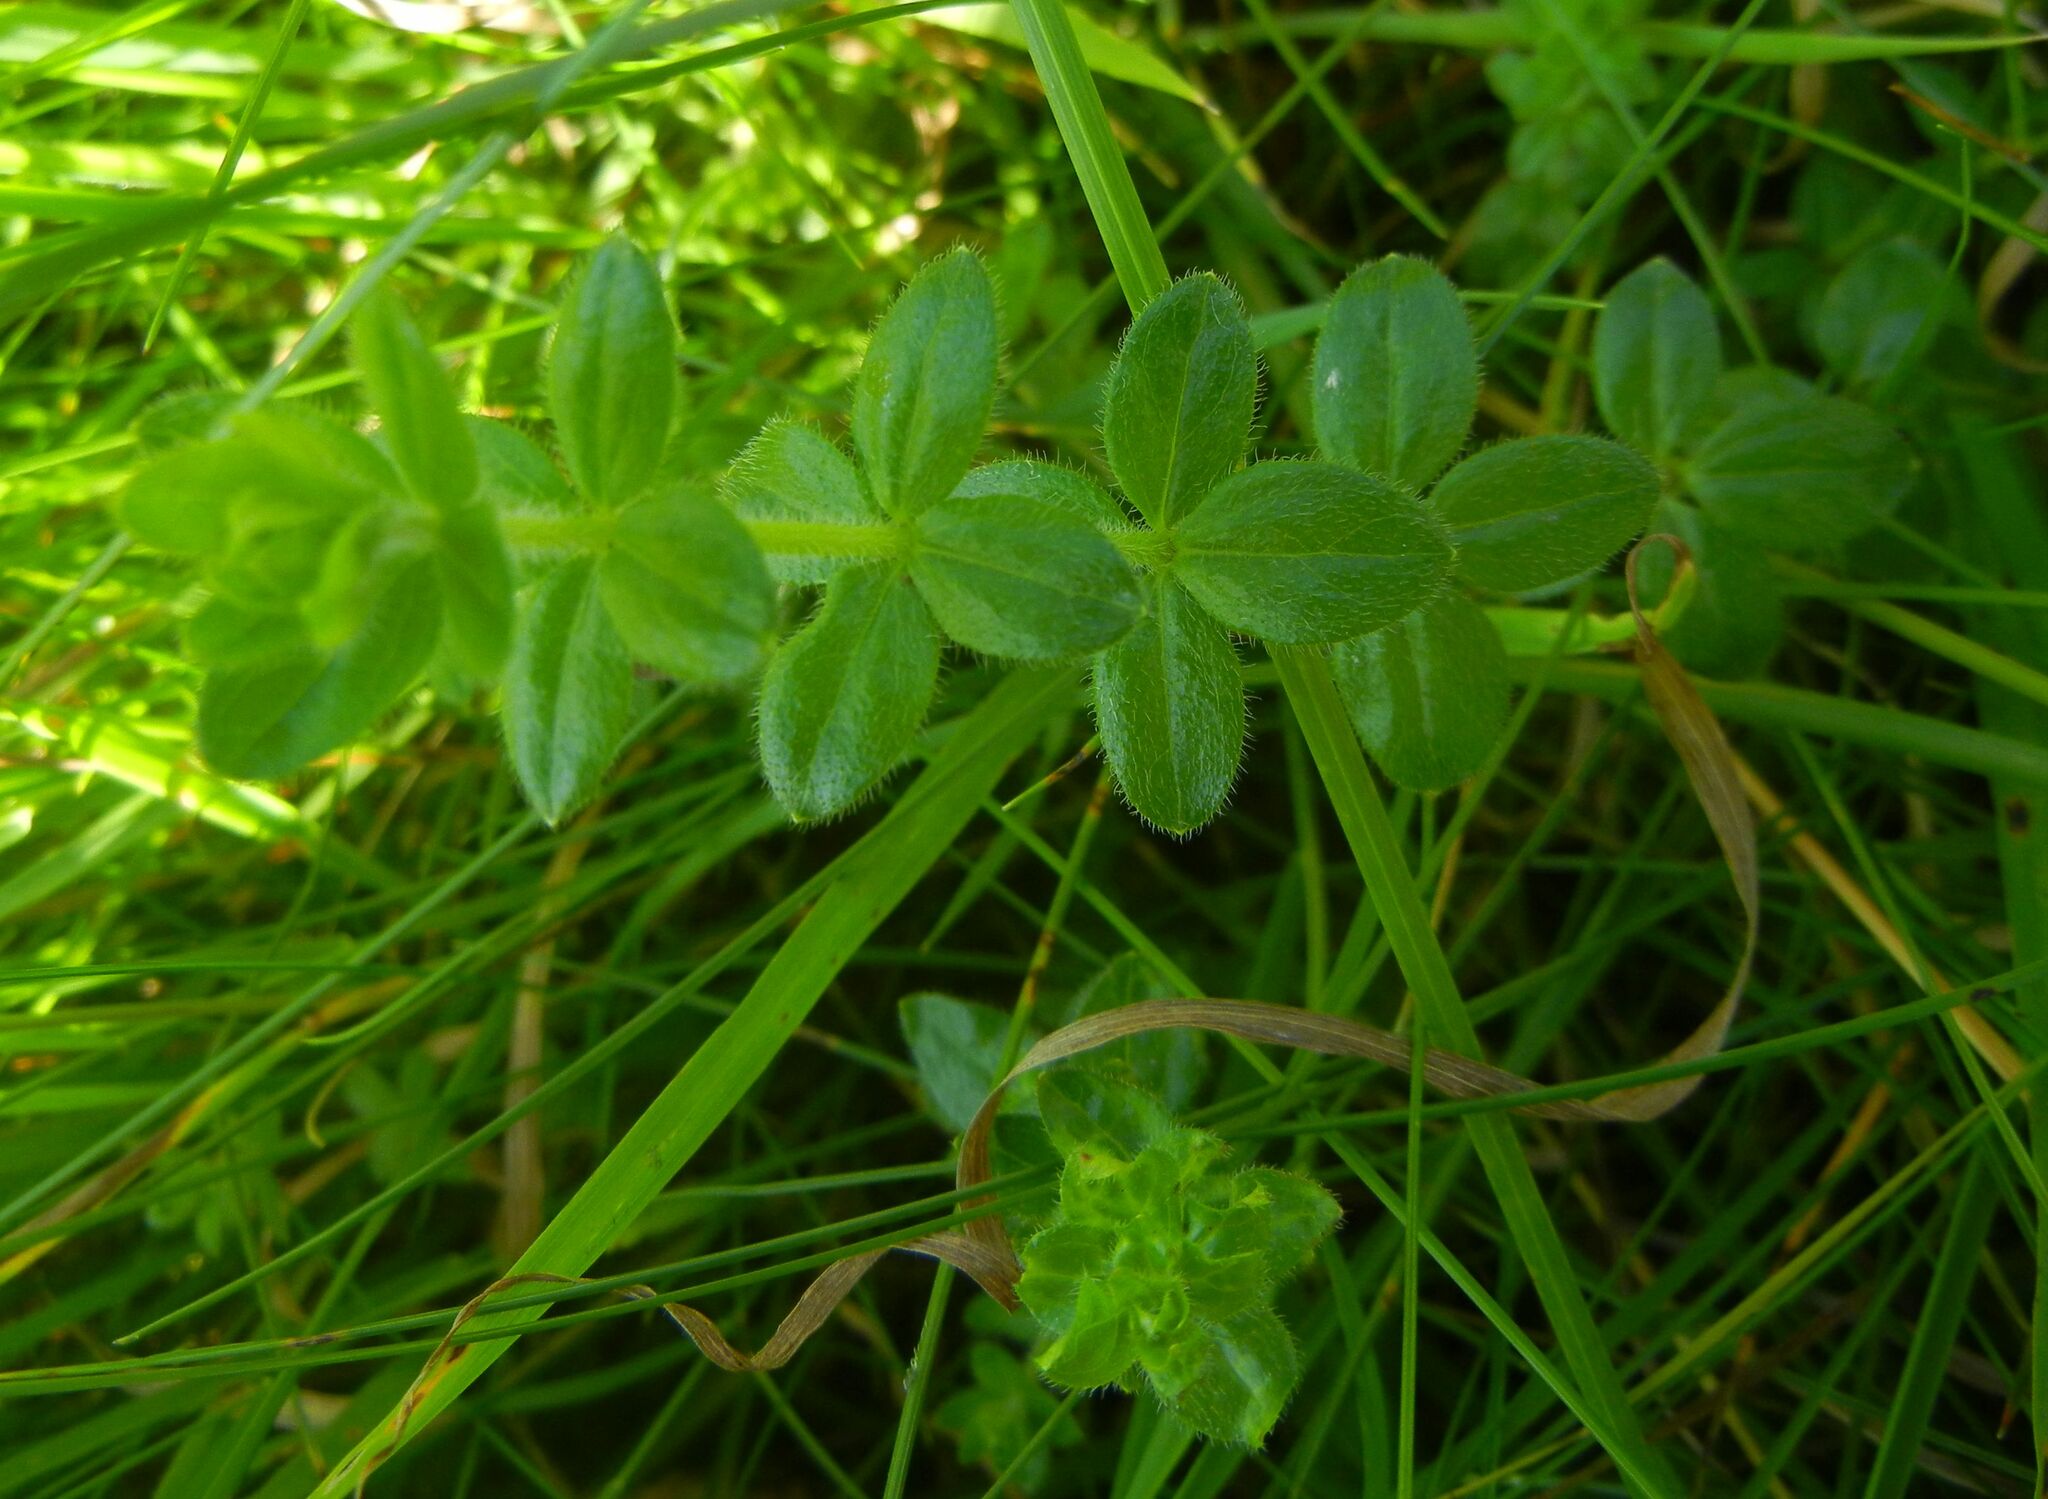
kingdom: Plantae
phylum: Tracheophyta
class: Magnoliopsida
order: Gentianales
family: Rubiaceae
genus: Cruciata
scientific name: Cruciata laevipes
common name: Crosswort
